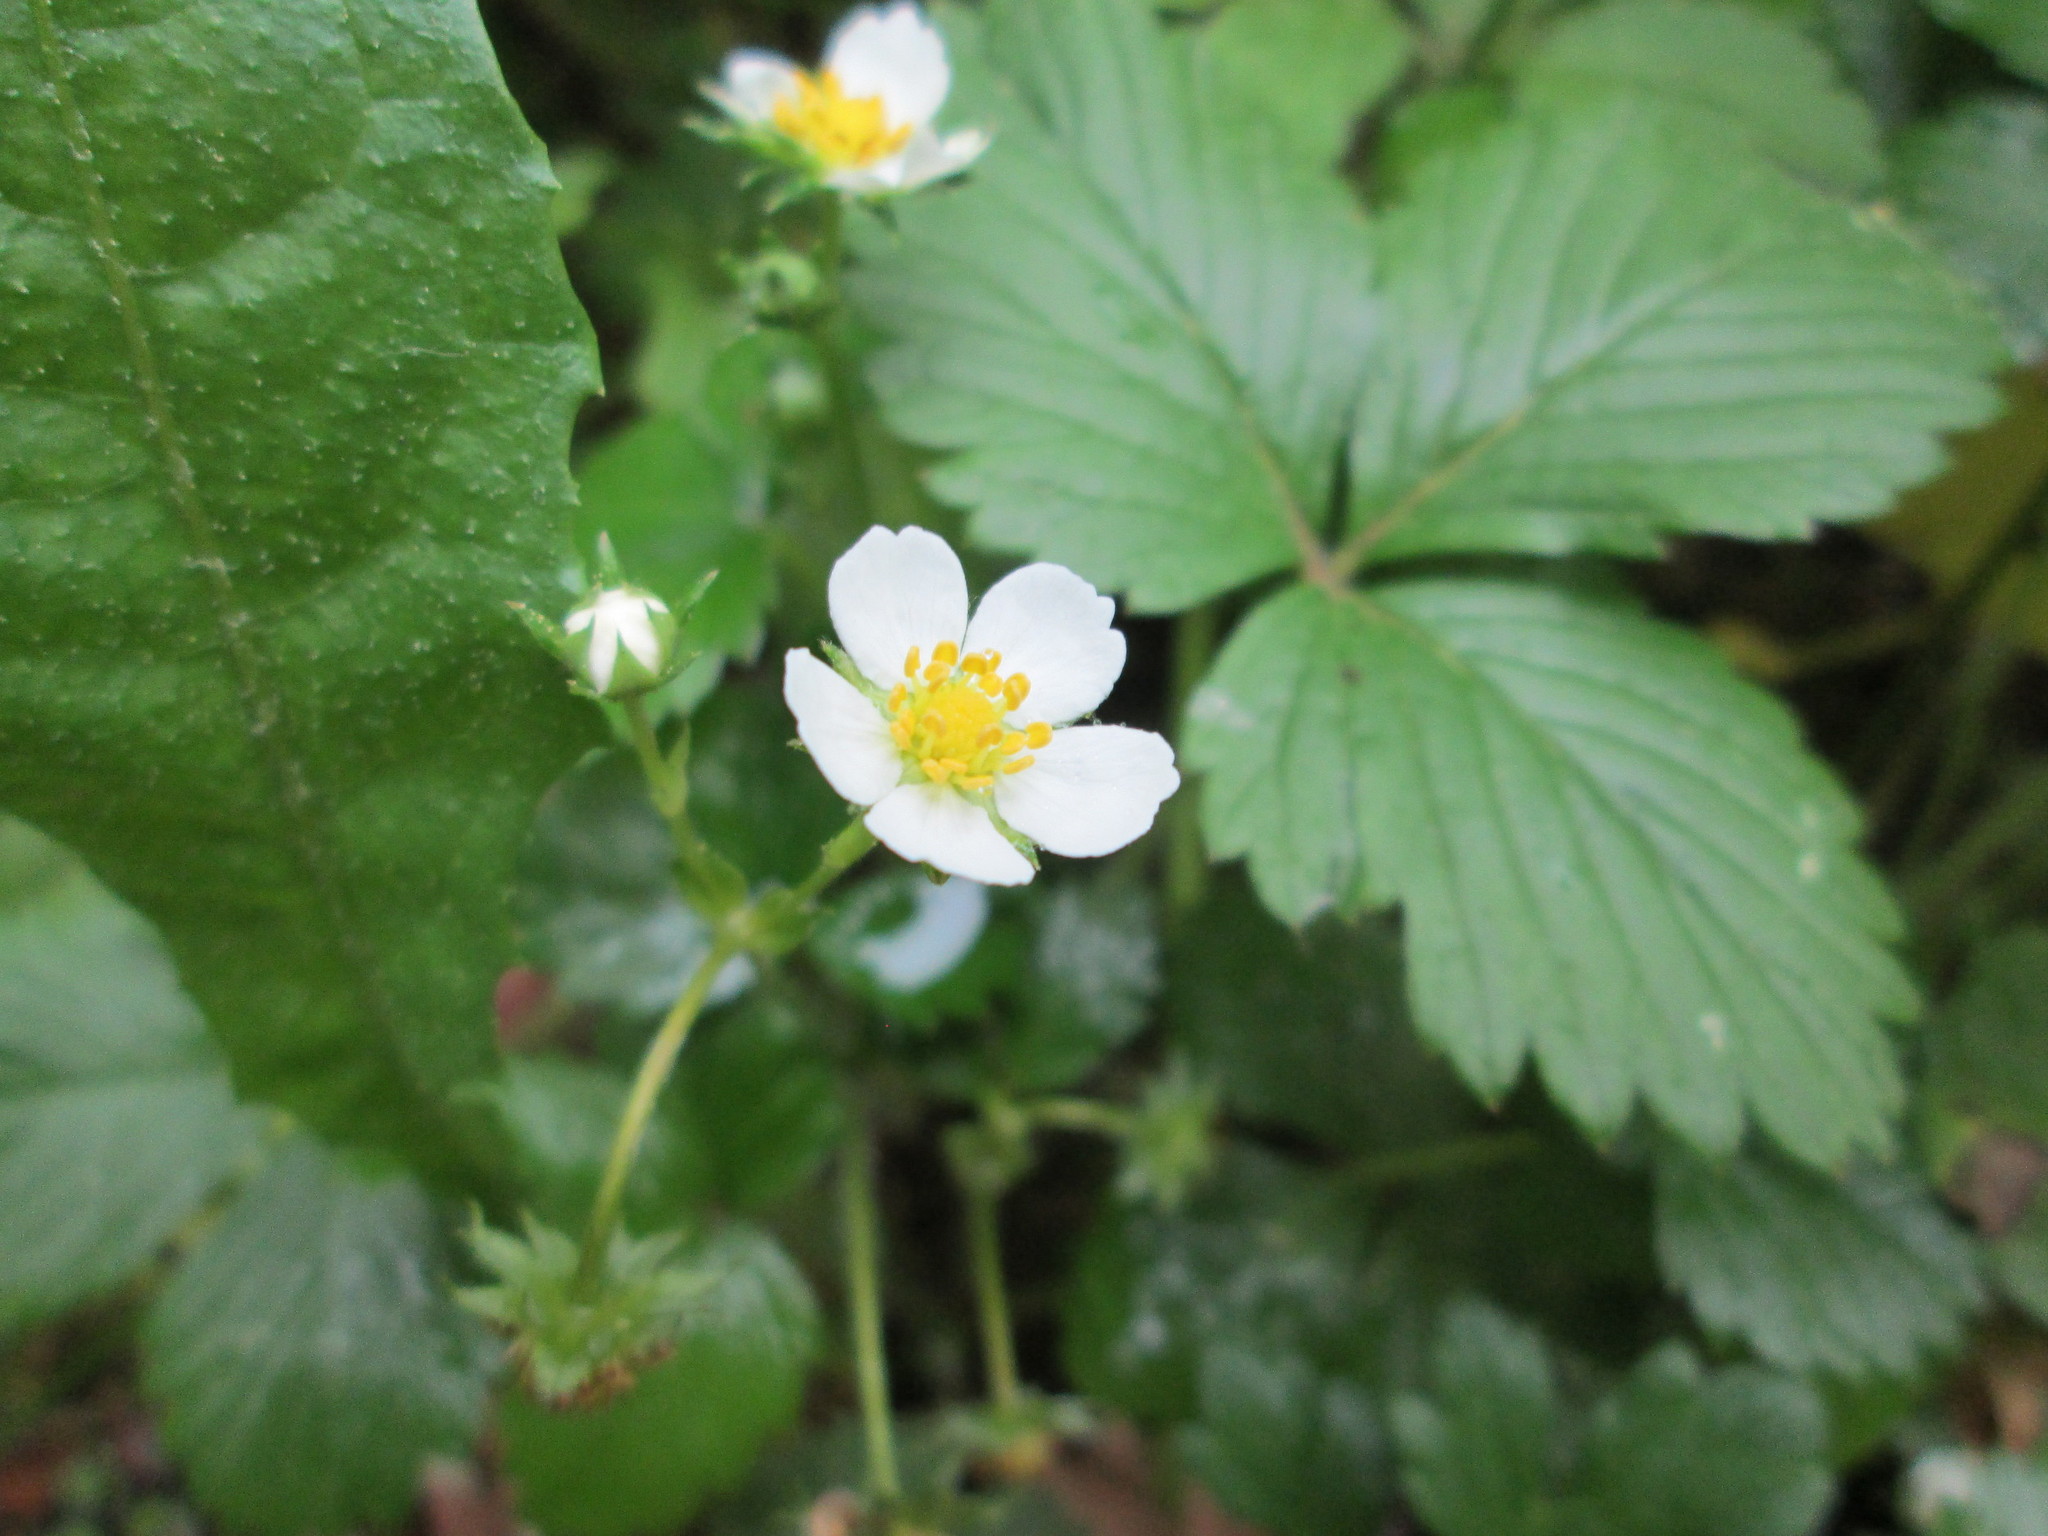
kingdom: Plantae
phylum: Tracheophyta
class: Magnoliopsida
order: Rosales
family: Rosaceae
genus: Fragaria
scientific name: Fragaria vesca
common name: Wild strawberry
